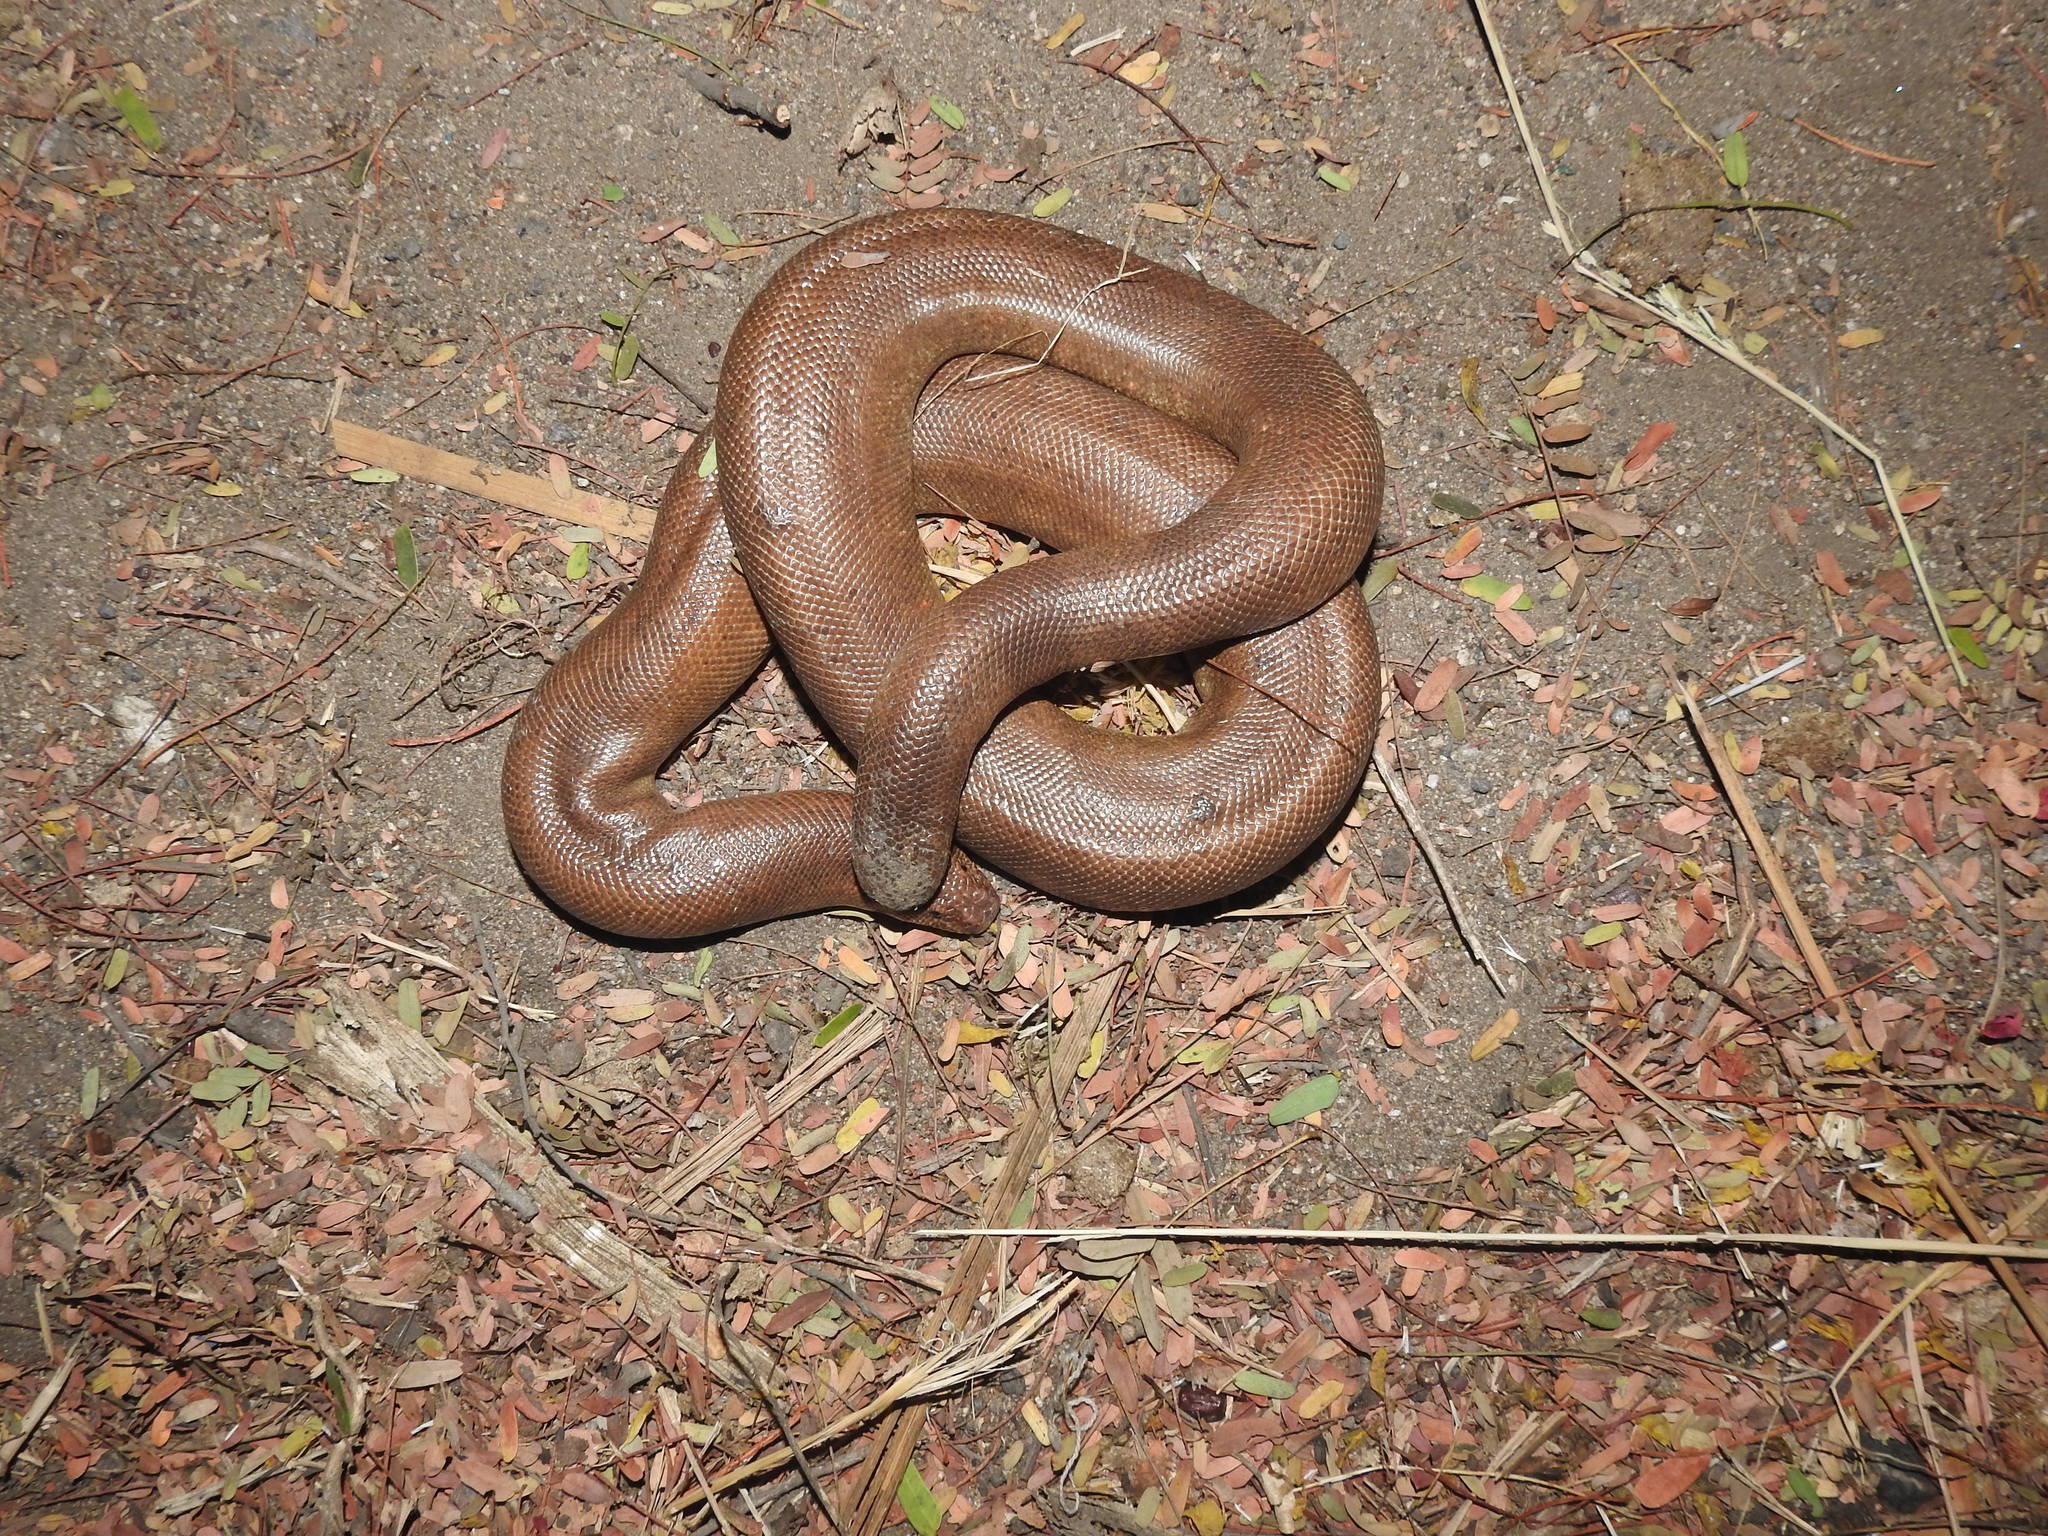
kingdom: Animalia
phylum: Chordata
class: Squamata
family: Boidae
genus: Eryx
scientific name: Eryx johnii
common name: Brown sand boa
